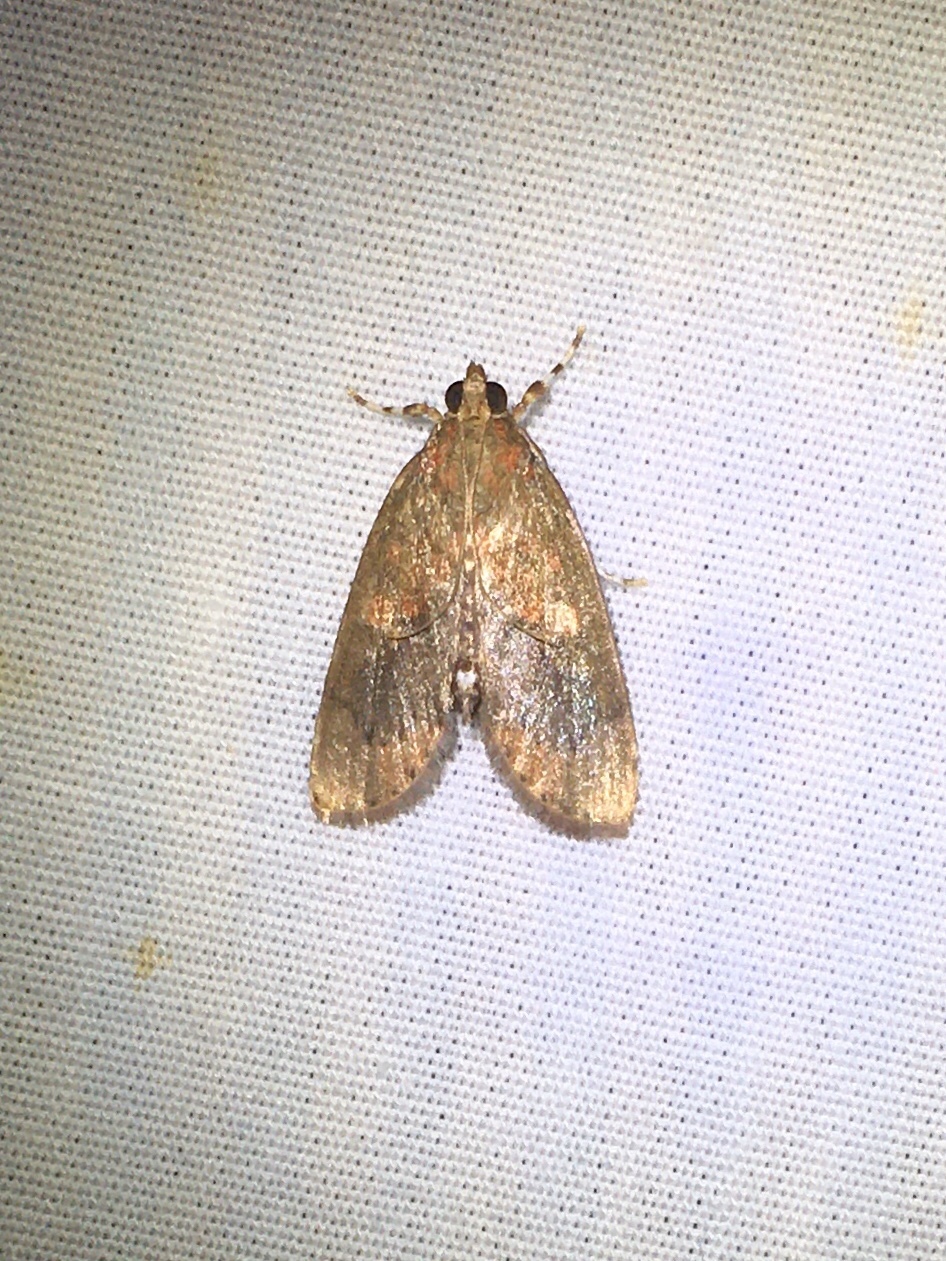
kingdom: Animalia
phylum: Arthropoda
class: Insecta
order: Lepidoptera
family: Crambidae
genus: Mimophobetron
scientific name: Mimophobetron pyropsalis
